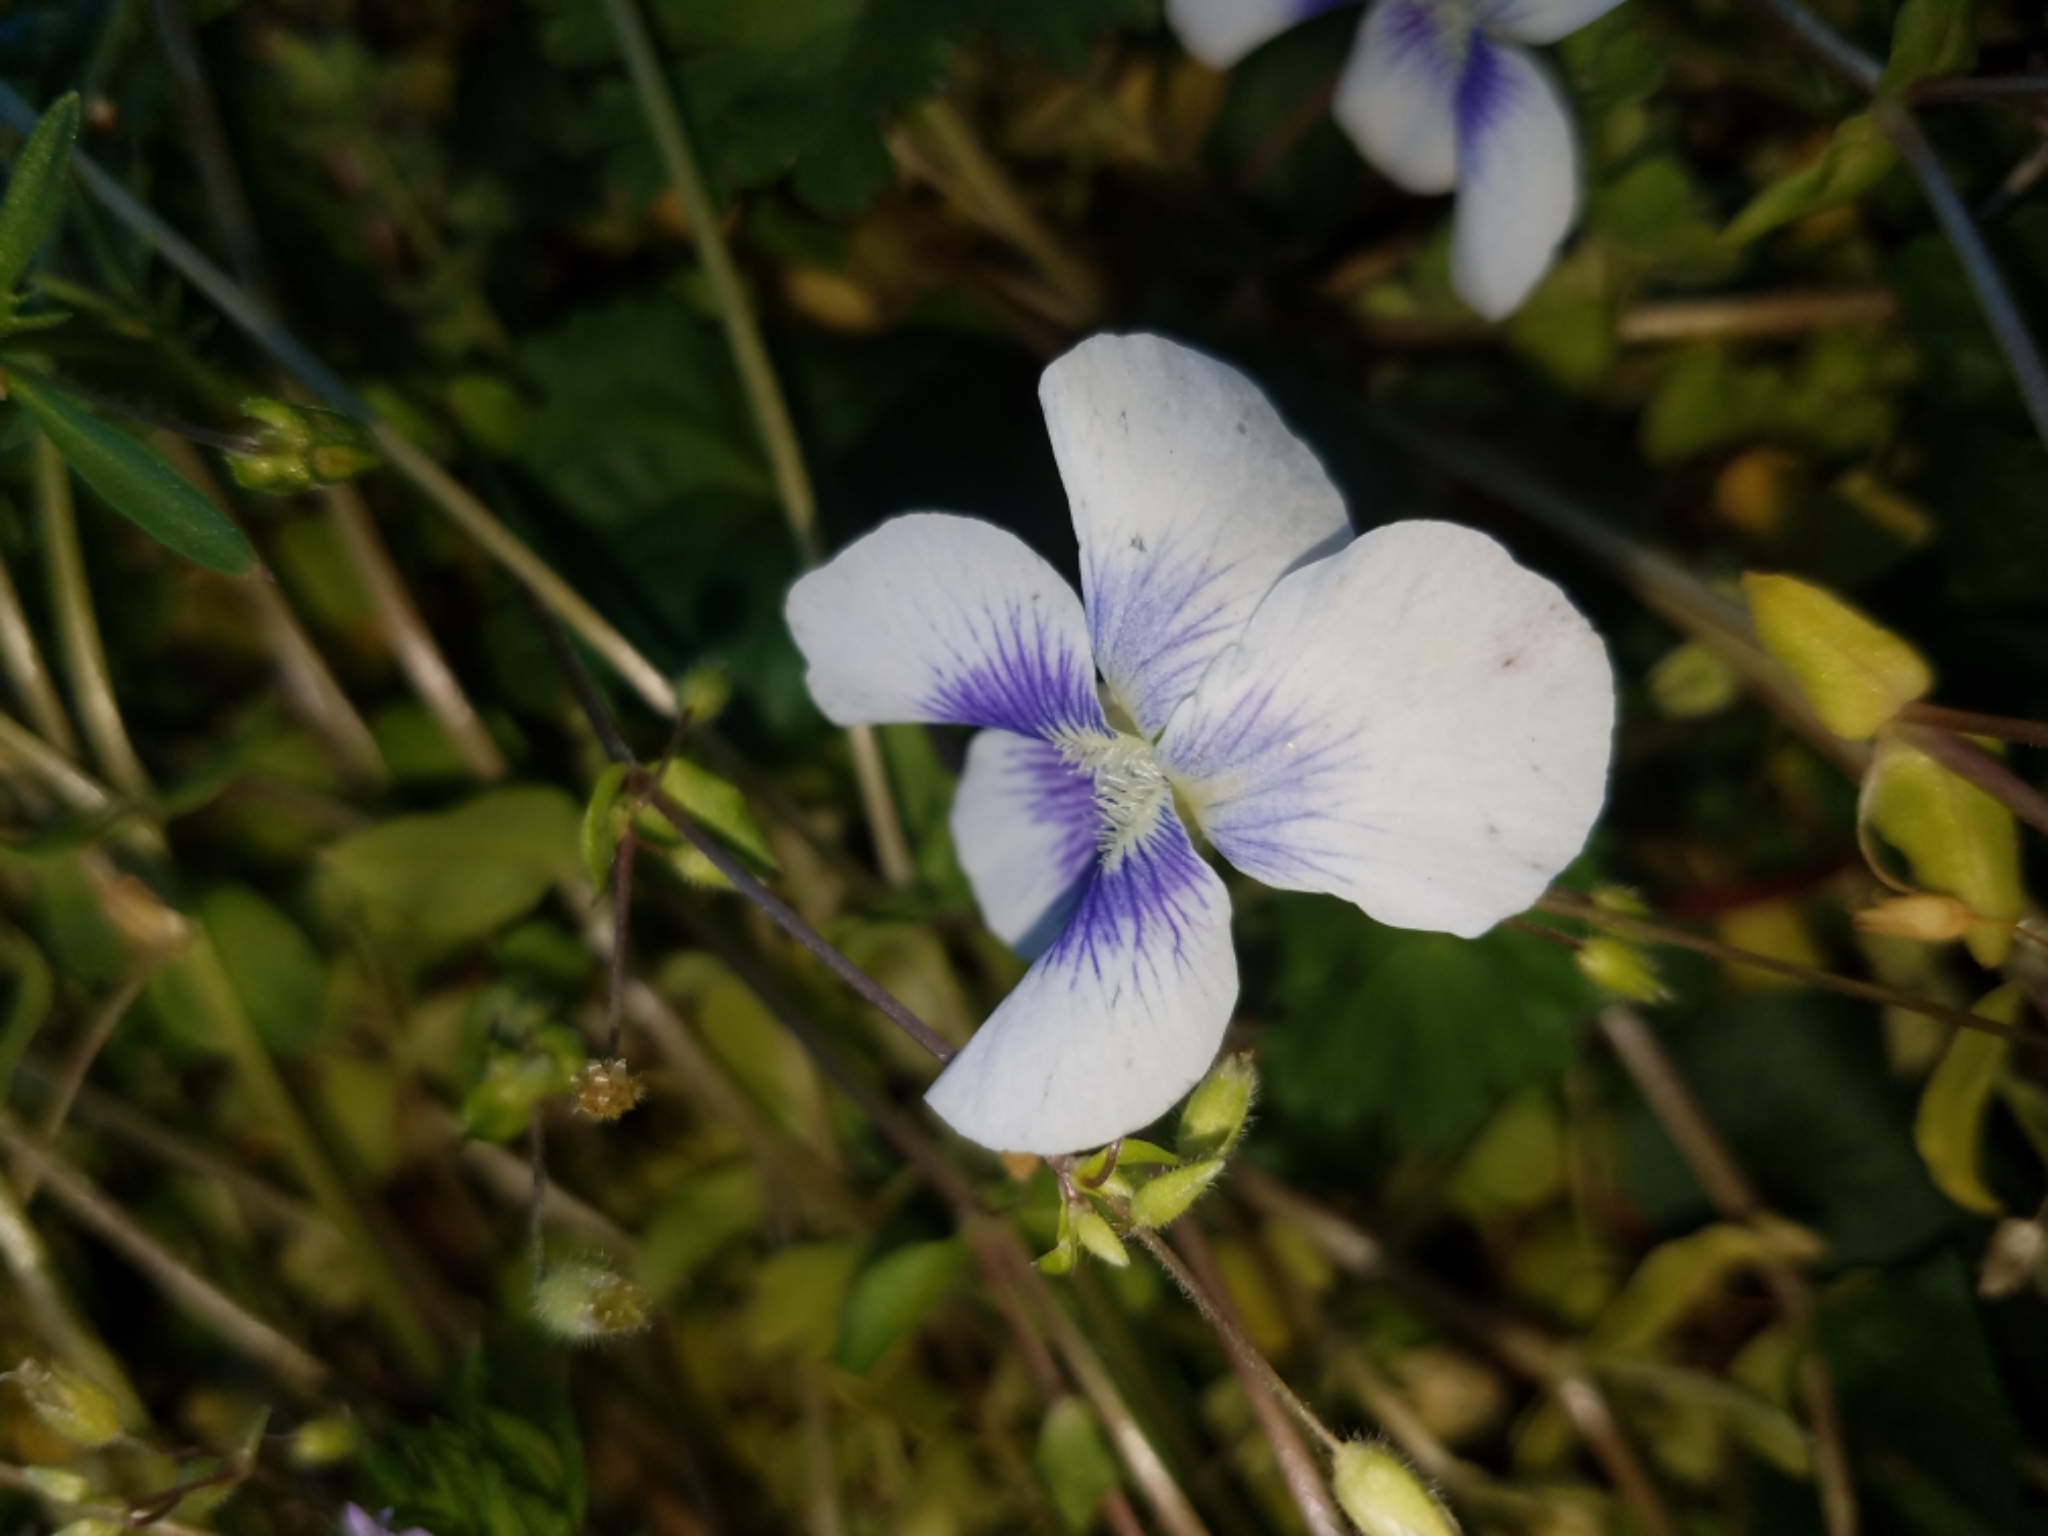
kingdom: Plantae
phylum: Tracheophyta
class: Magnoliopsida
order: Malpighiales
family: Violaceae
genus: Viola
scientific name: Viola sororia
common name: Dooryard violet
